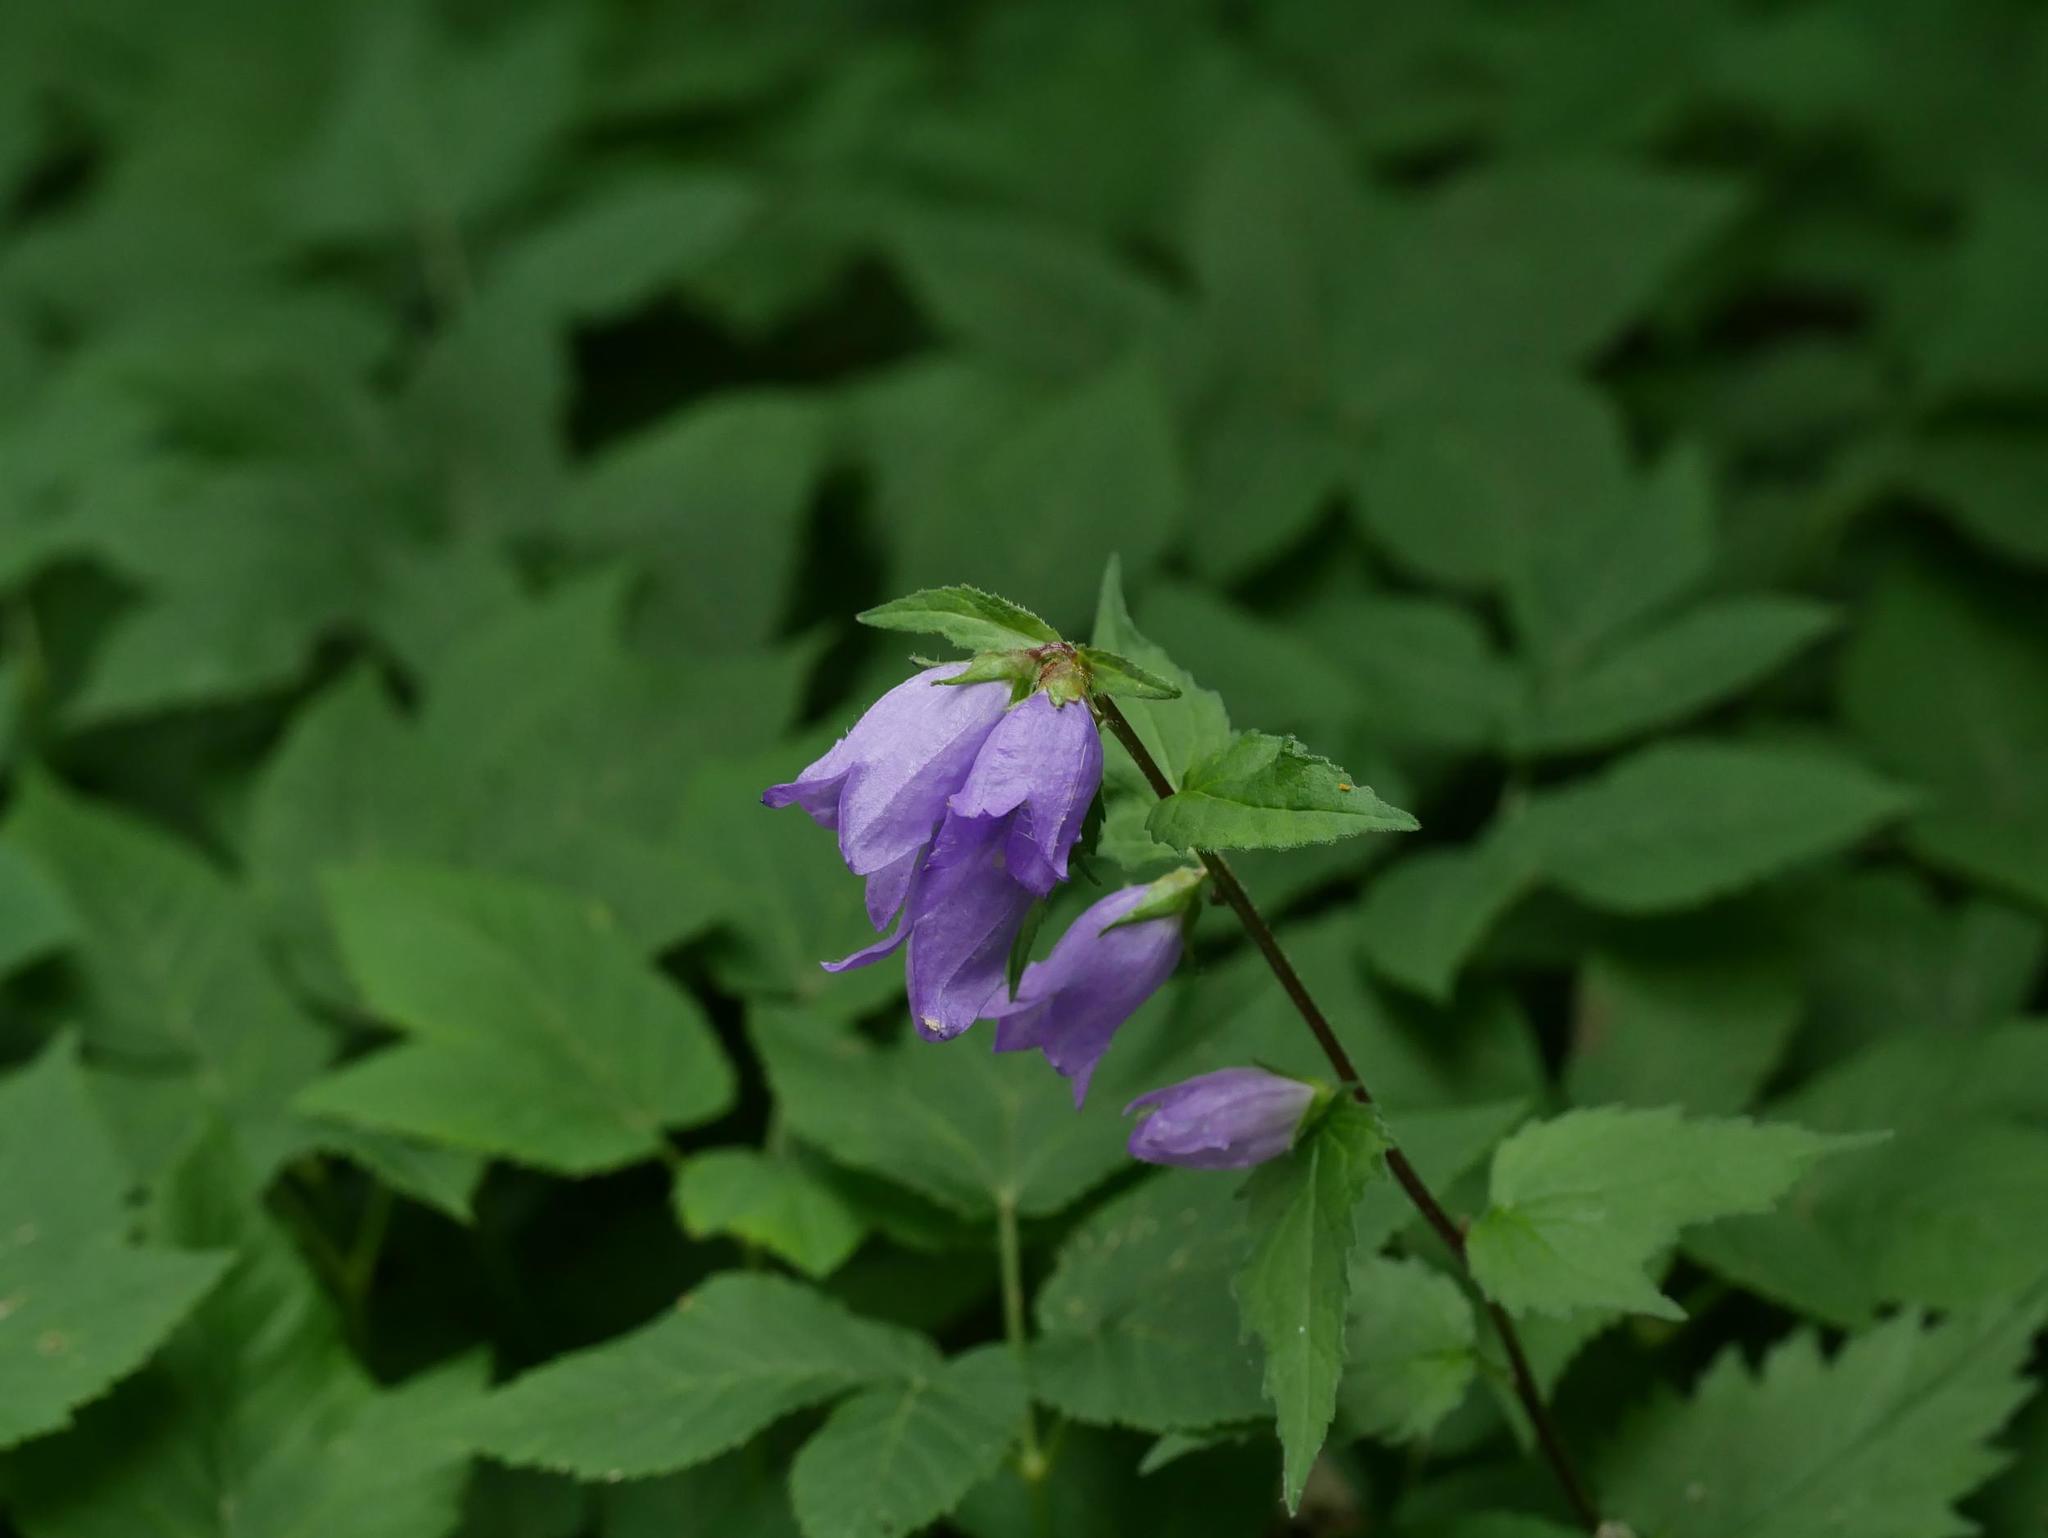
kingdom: Plantae
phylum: Tracheophyta
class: Magnoliopsida
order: Asterales
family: Campanulaceae
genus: Campanula
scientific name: Campanula trachelium
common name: Nettle-leaved bellflower
